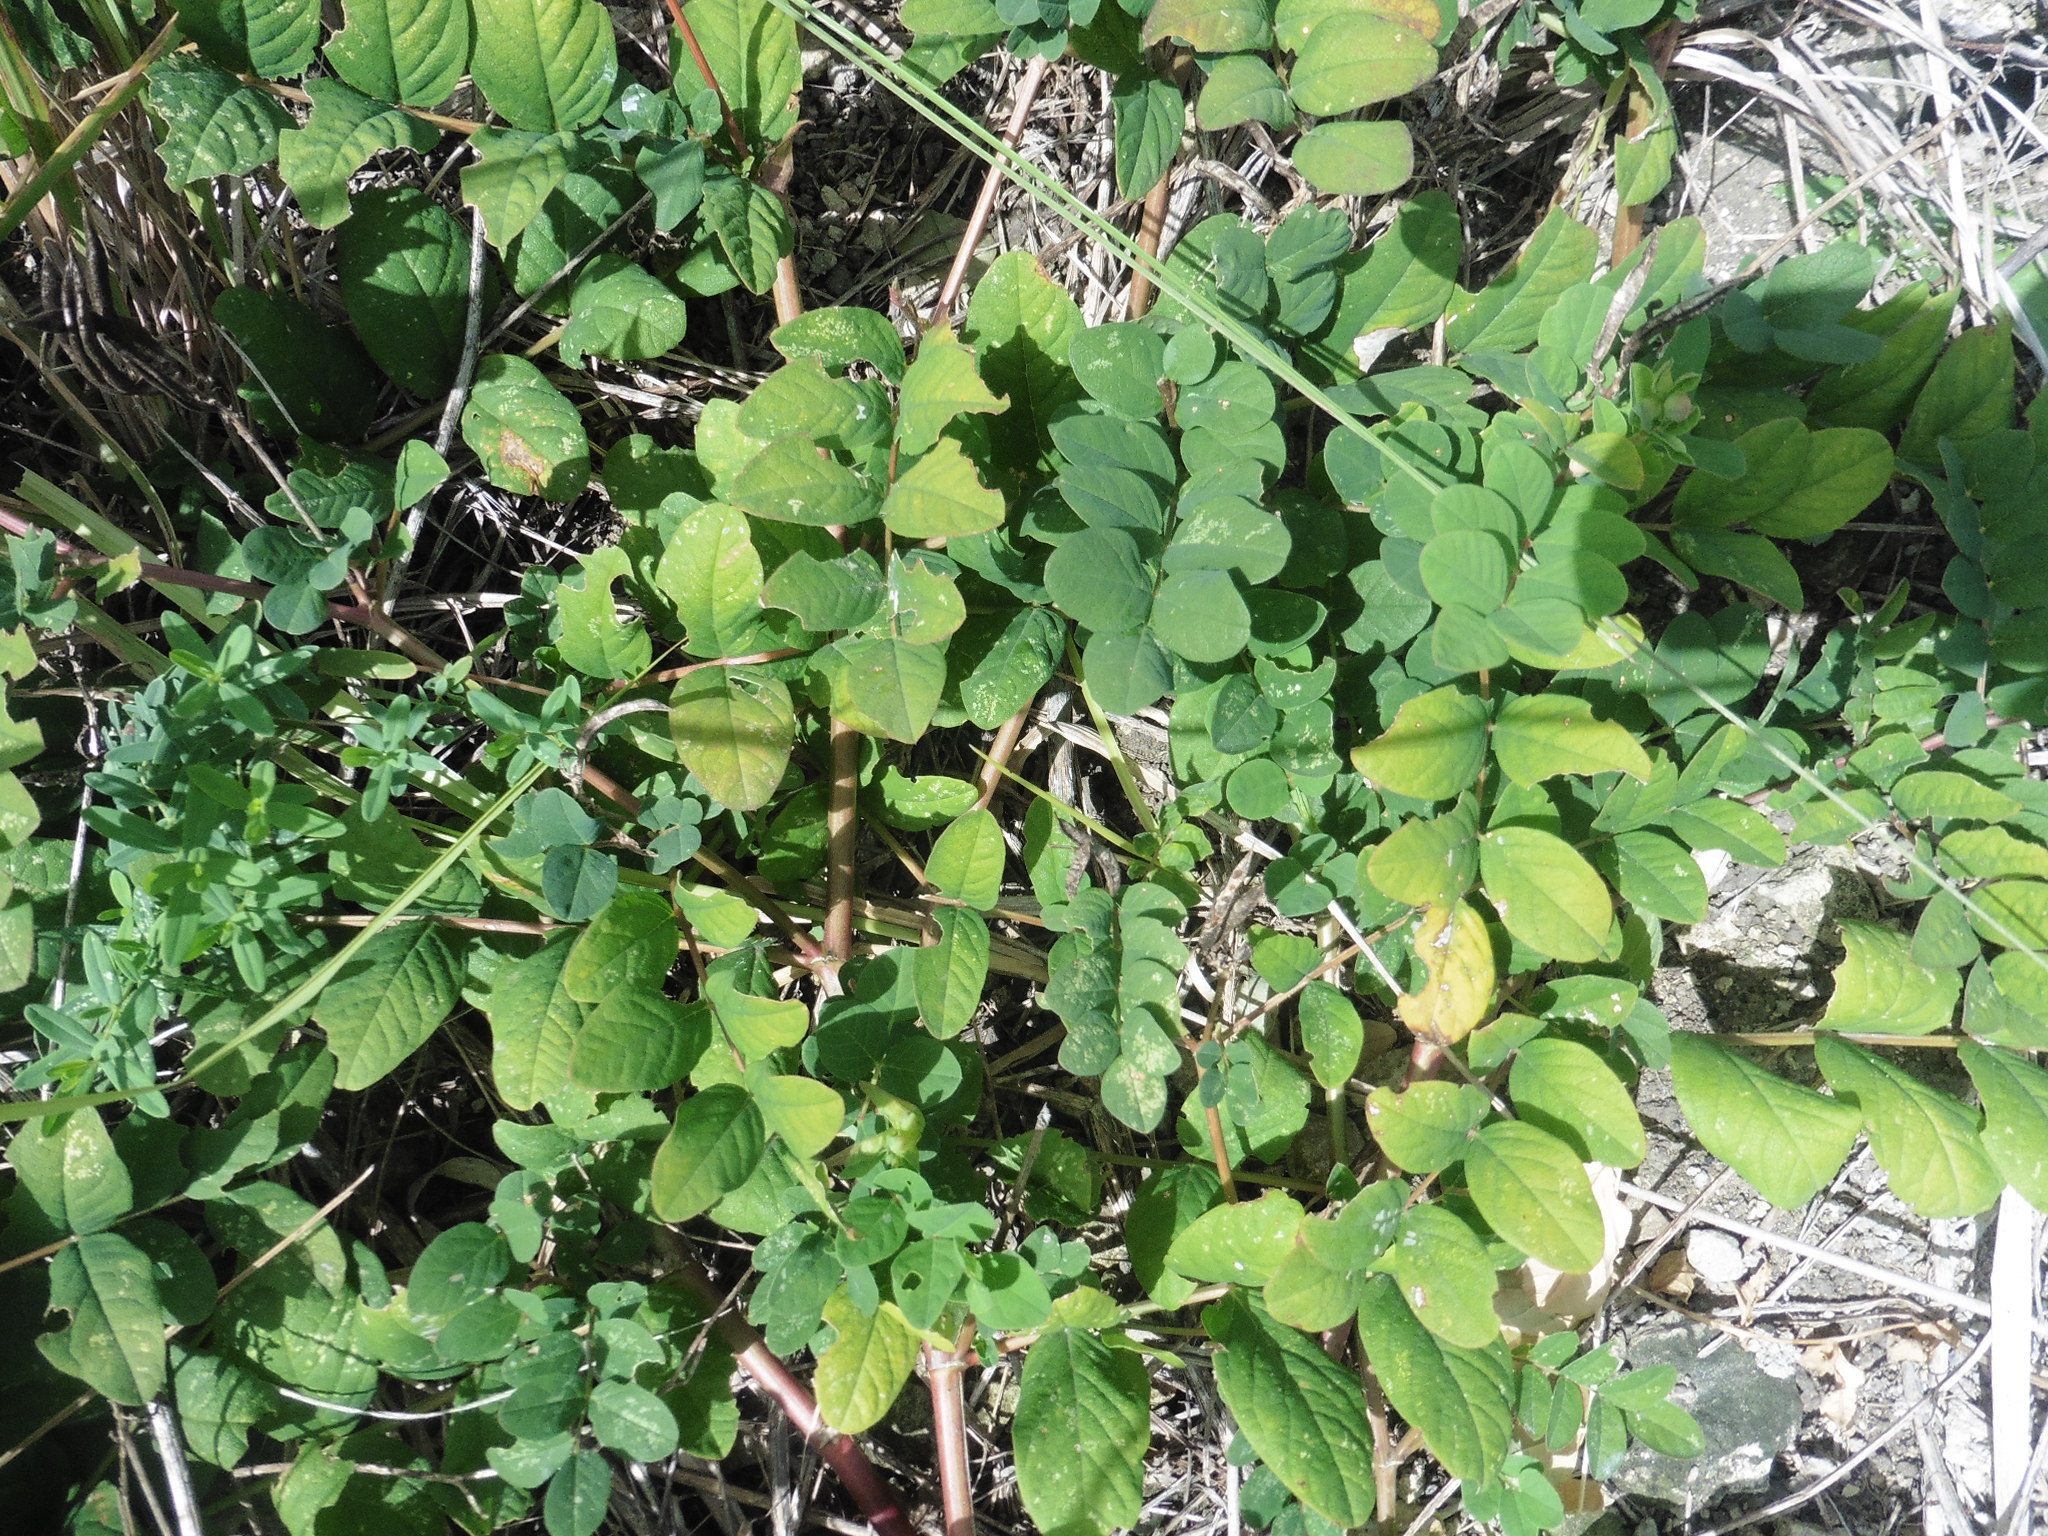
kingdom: Plantae
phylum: Tracheophyta
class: Magnoliopsida
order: Fabales
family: Fabaceae
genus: Astragalus
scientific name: Astragalus glycyphyllos
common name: Wild liquorice
